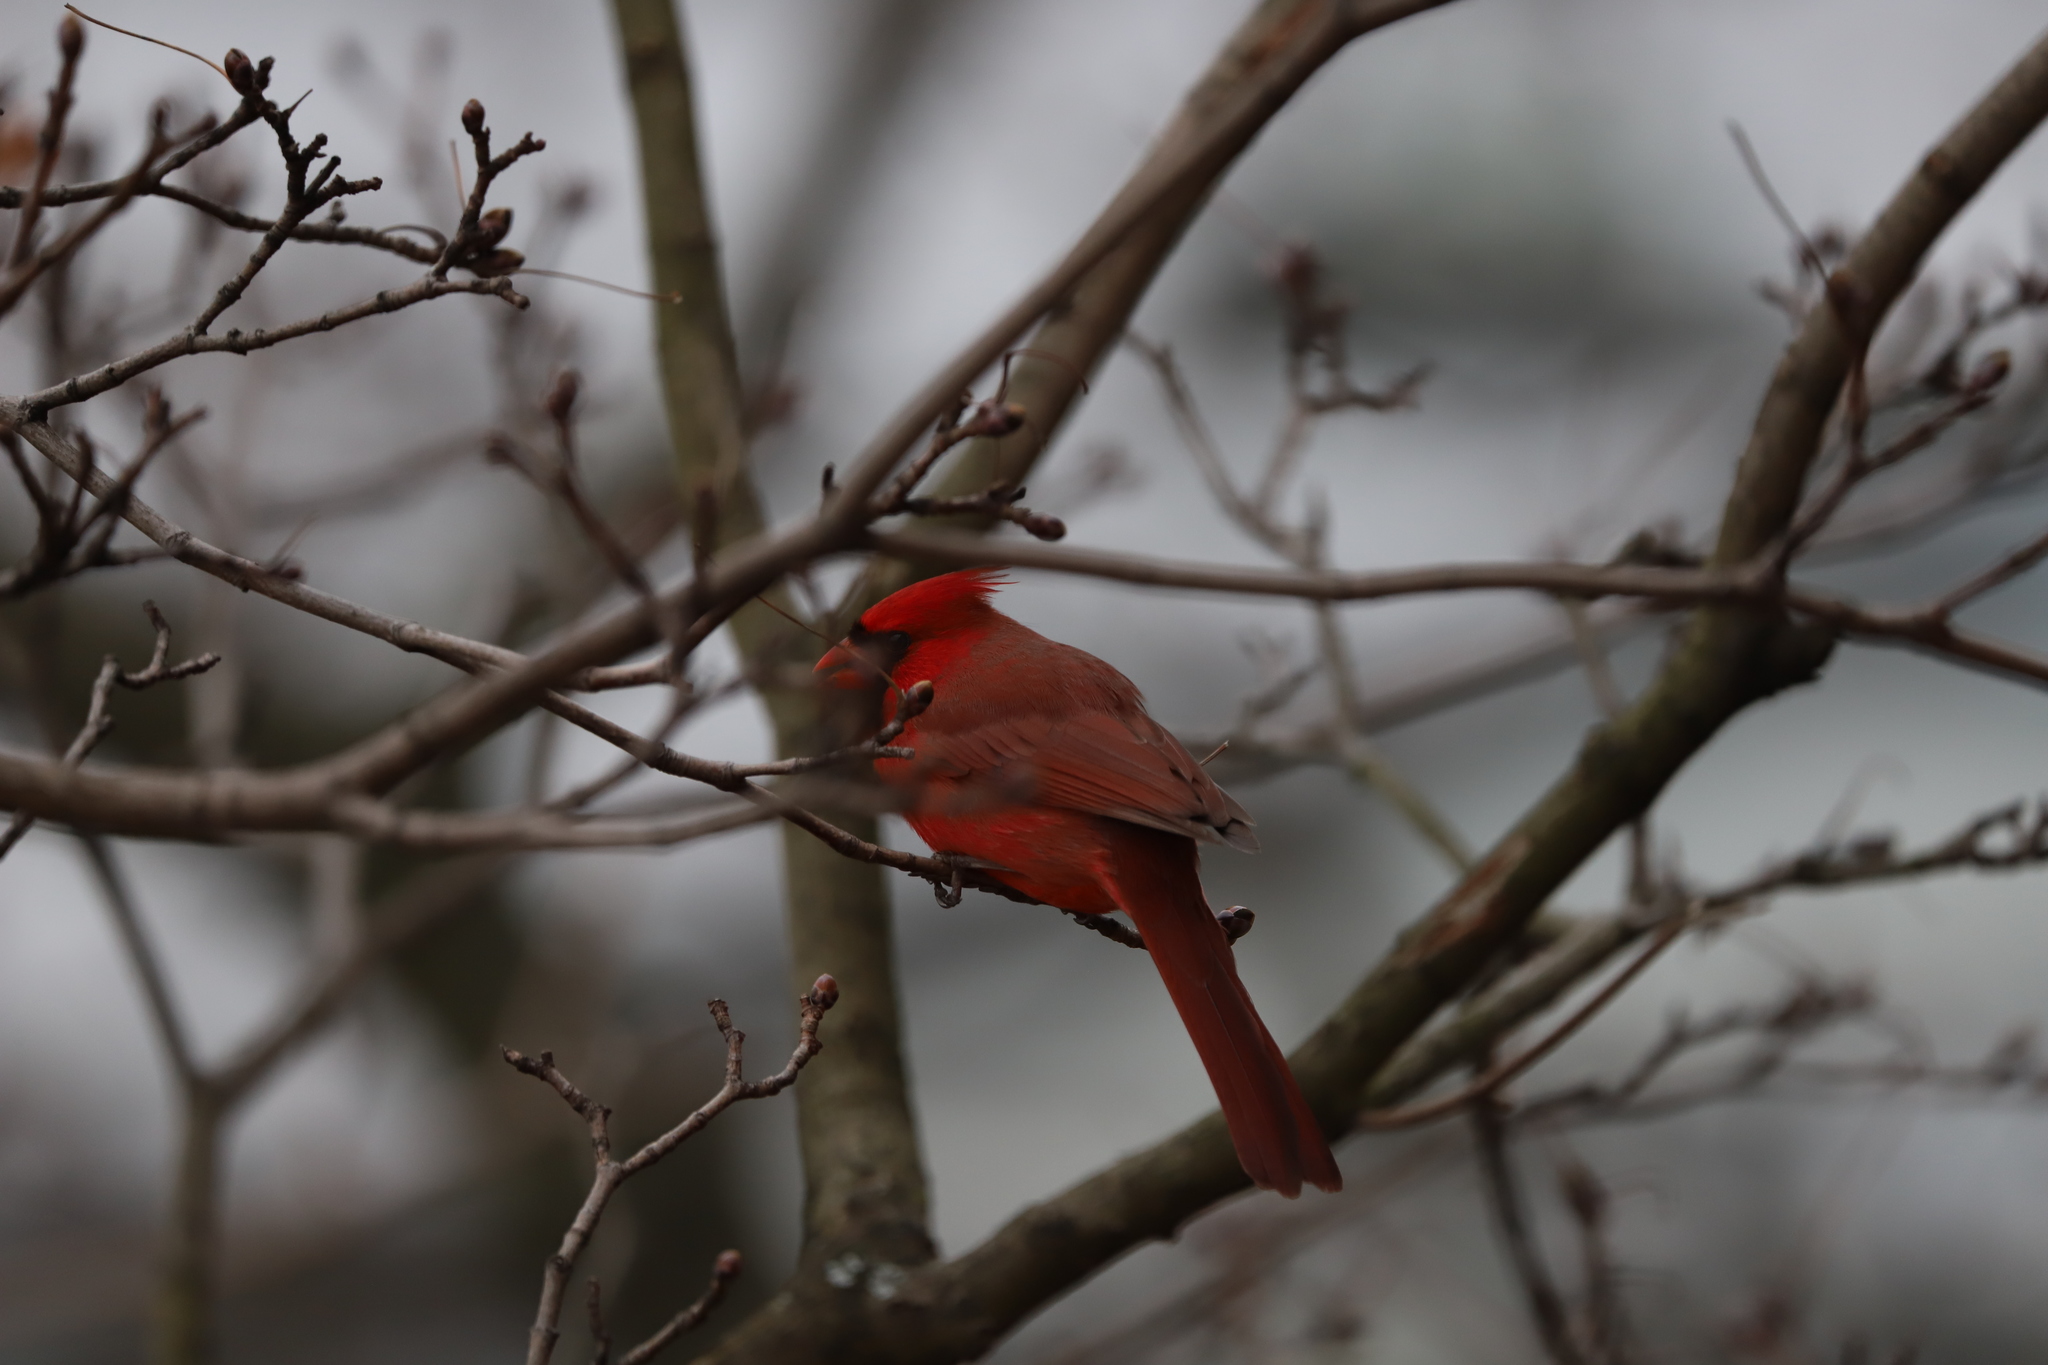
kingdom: Animalia
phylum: Chordata
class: Aves
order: Passeriformes
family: Cardinalidae
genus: Cardinalis
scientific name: Cardinalis cardinalis
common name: Northern cardinal
